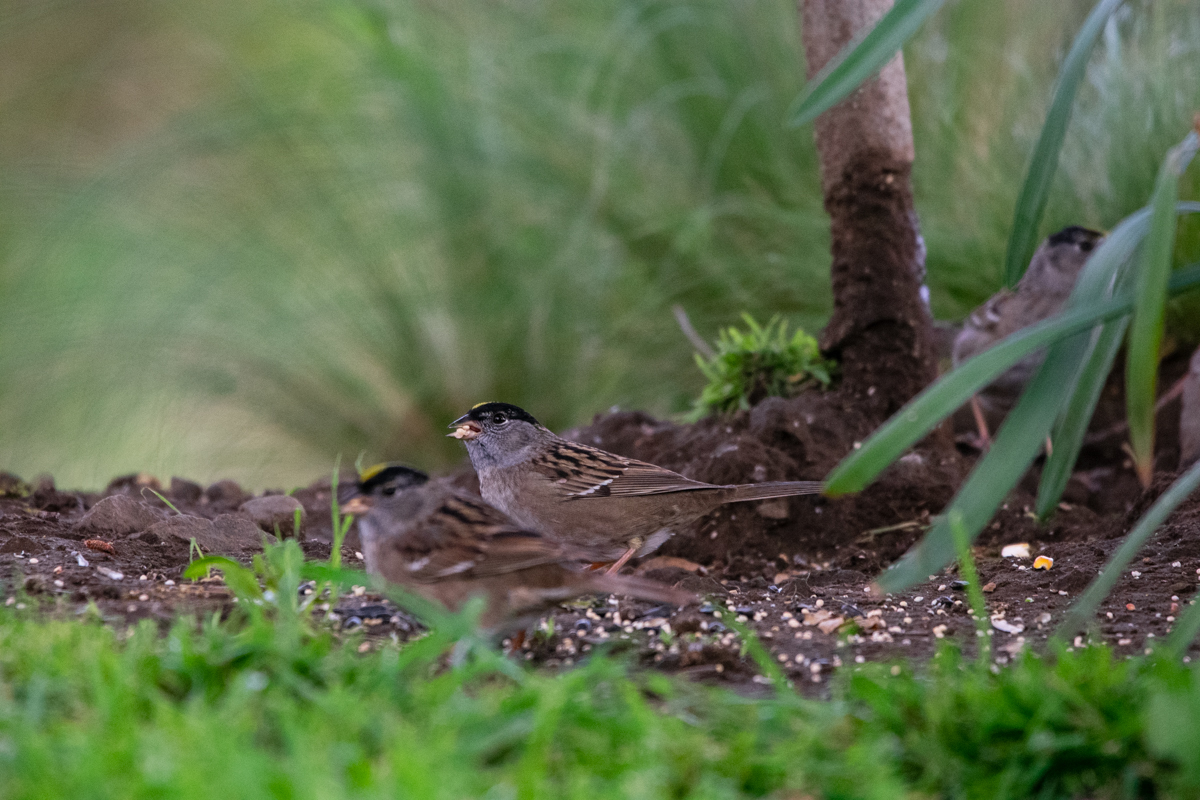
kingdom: Animalia
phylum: Chordata
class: Aves
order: Passeriformes
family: Passerellidae
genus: Zonotrichia
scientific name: Zonotrichia atricapilla
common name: Golden-crowned sparrow
